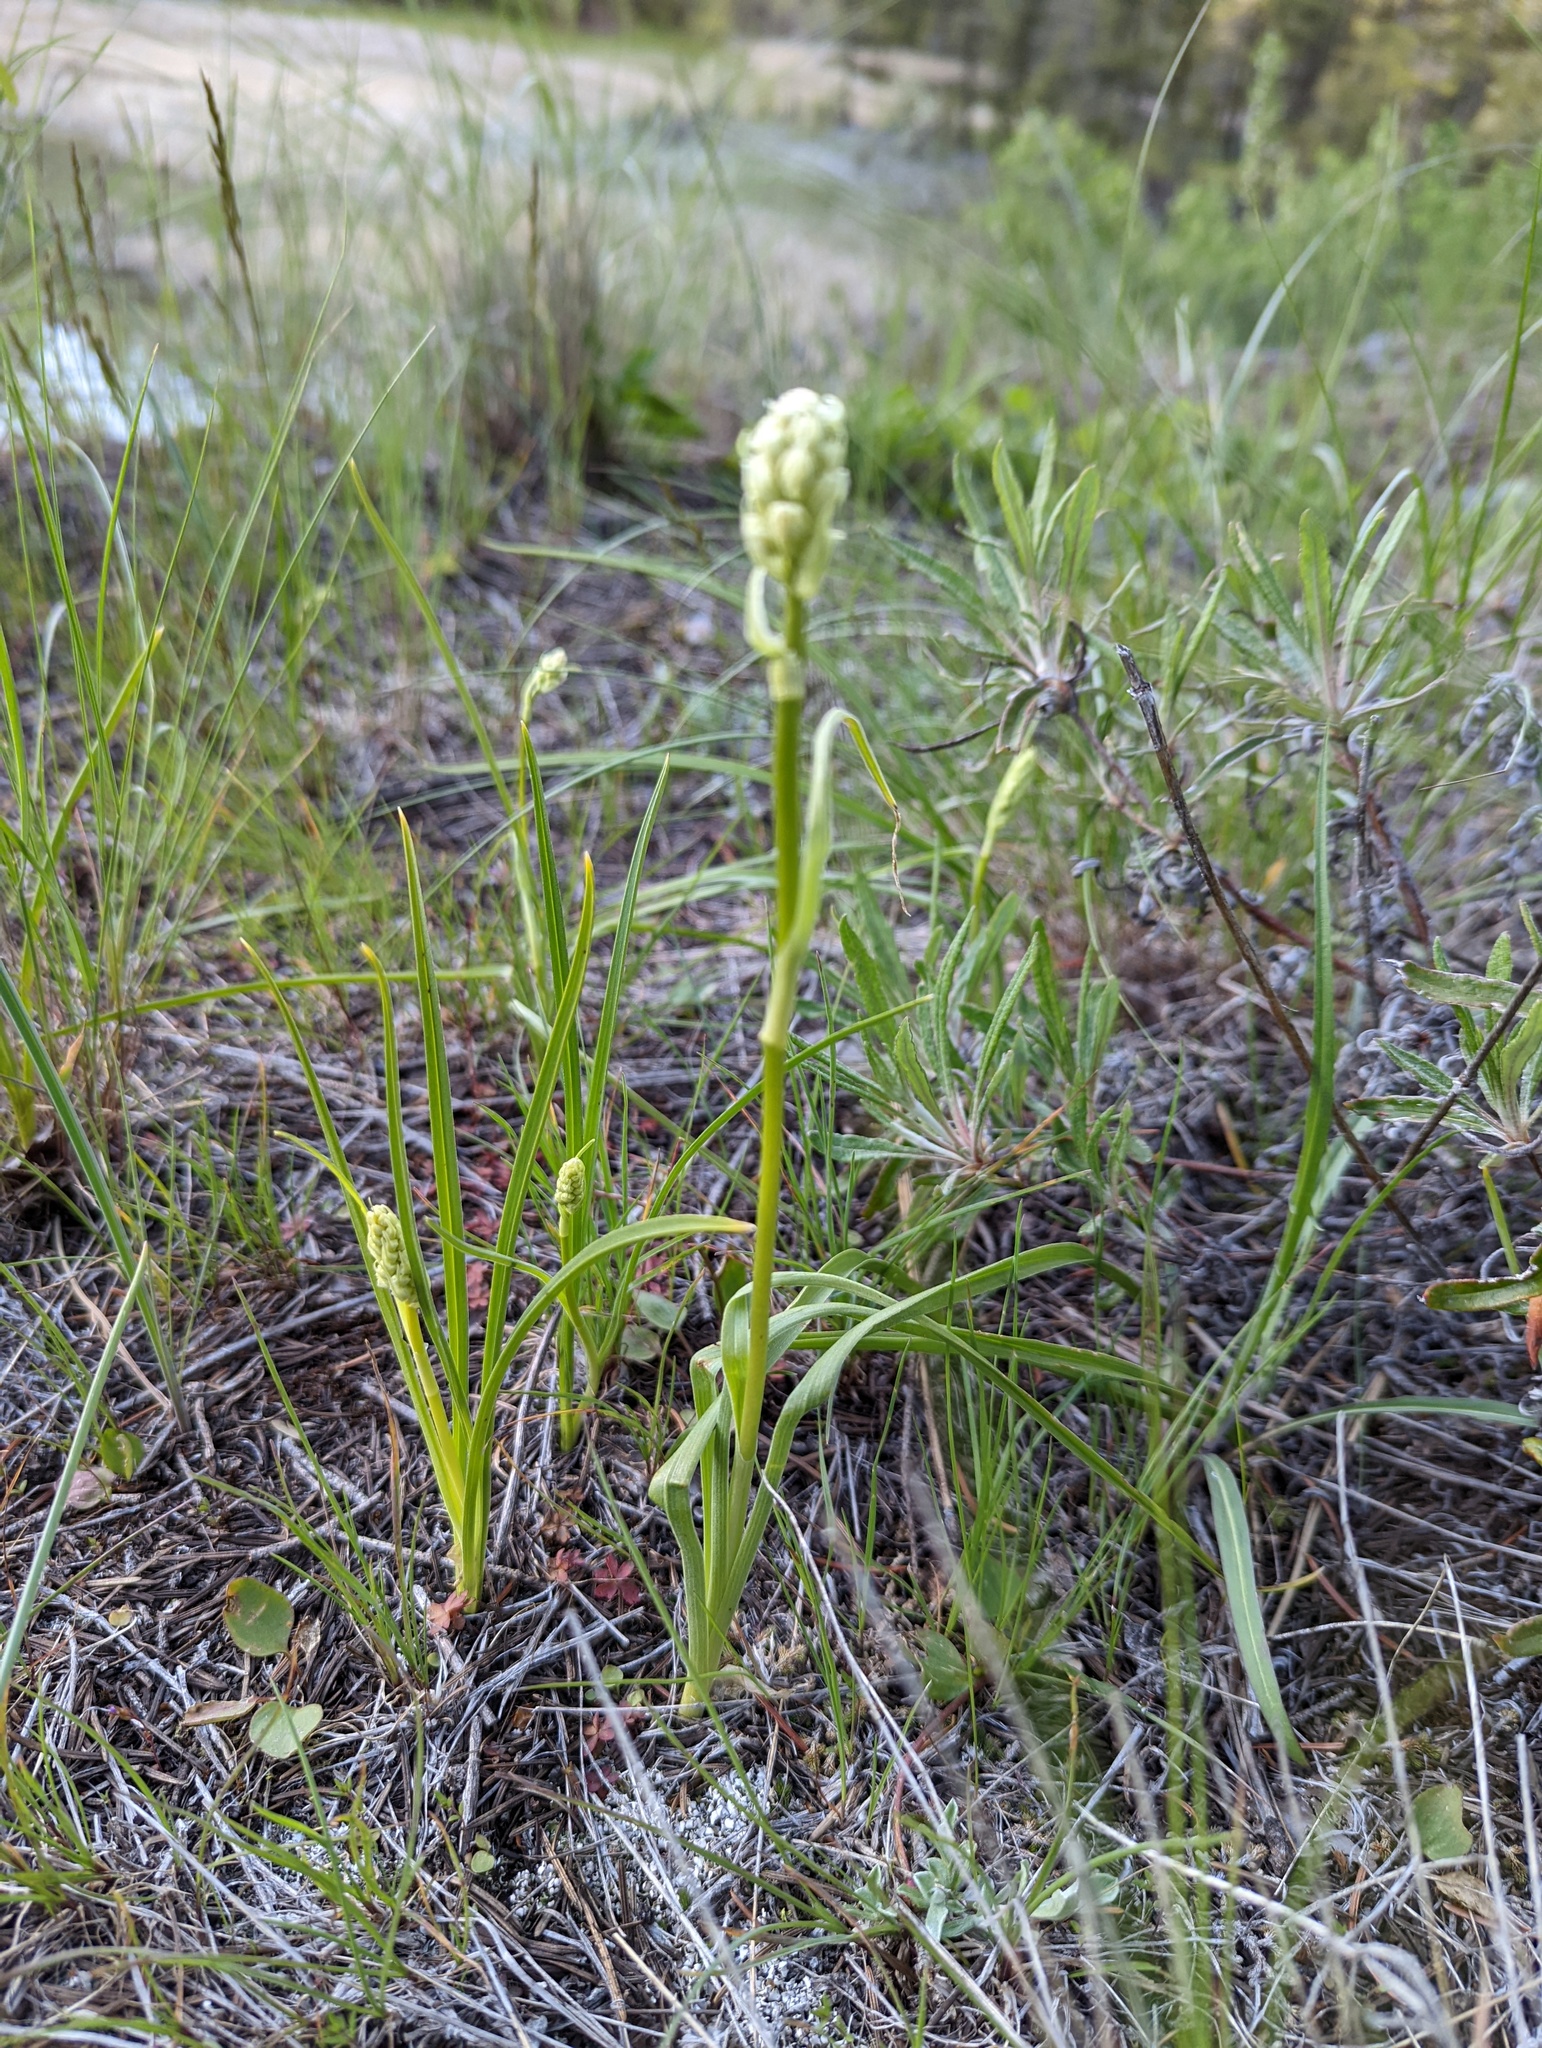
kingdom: Plantae
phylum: Tracheophyta
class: Liliopsida
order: Liliales
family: Melanthiaceae
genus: Toxicoscordion
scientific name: Toxicoscordion venenosum
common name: Meadow death camas
